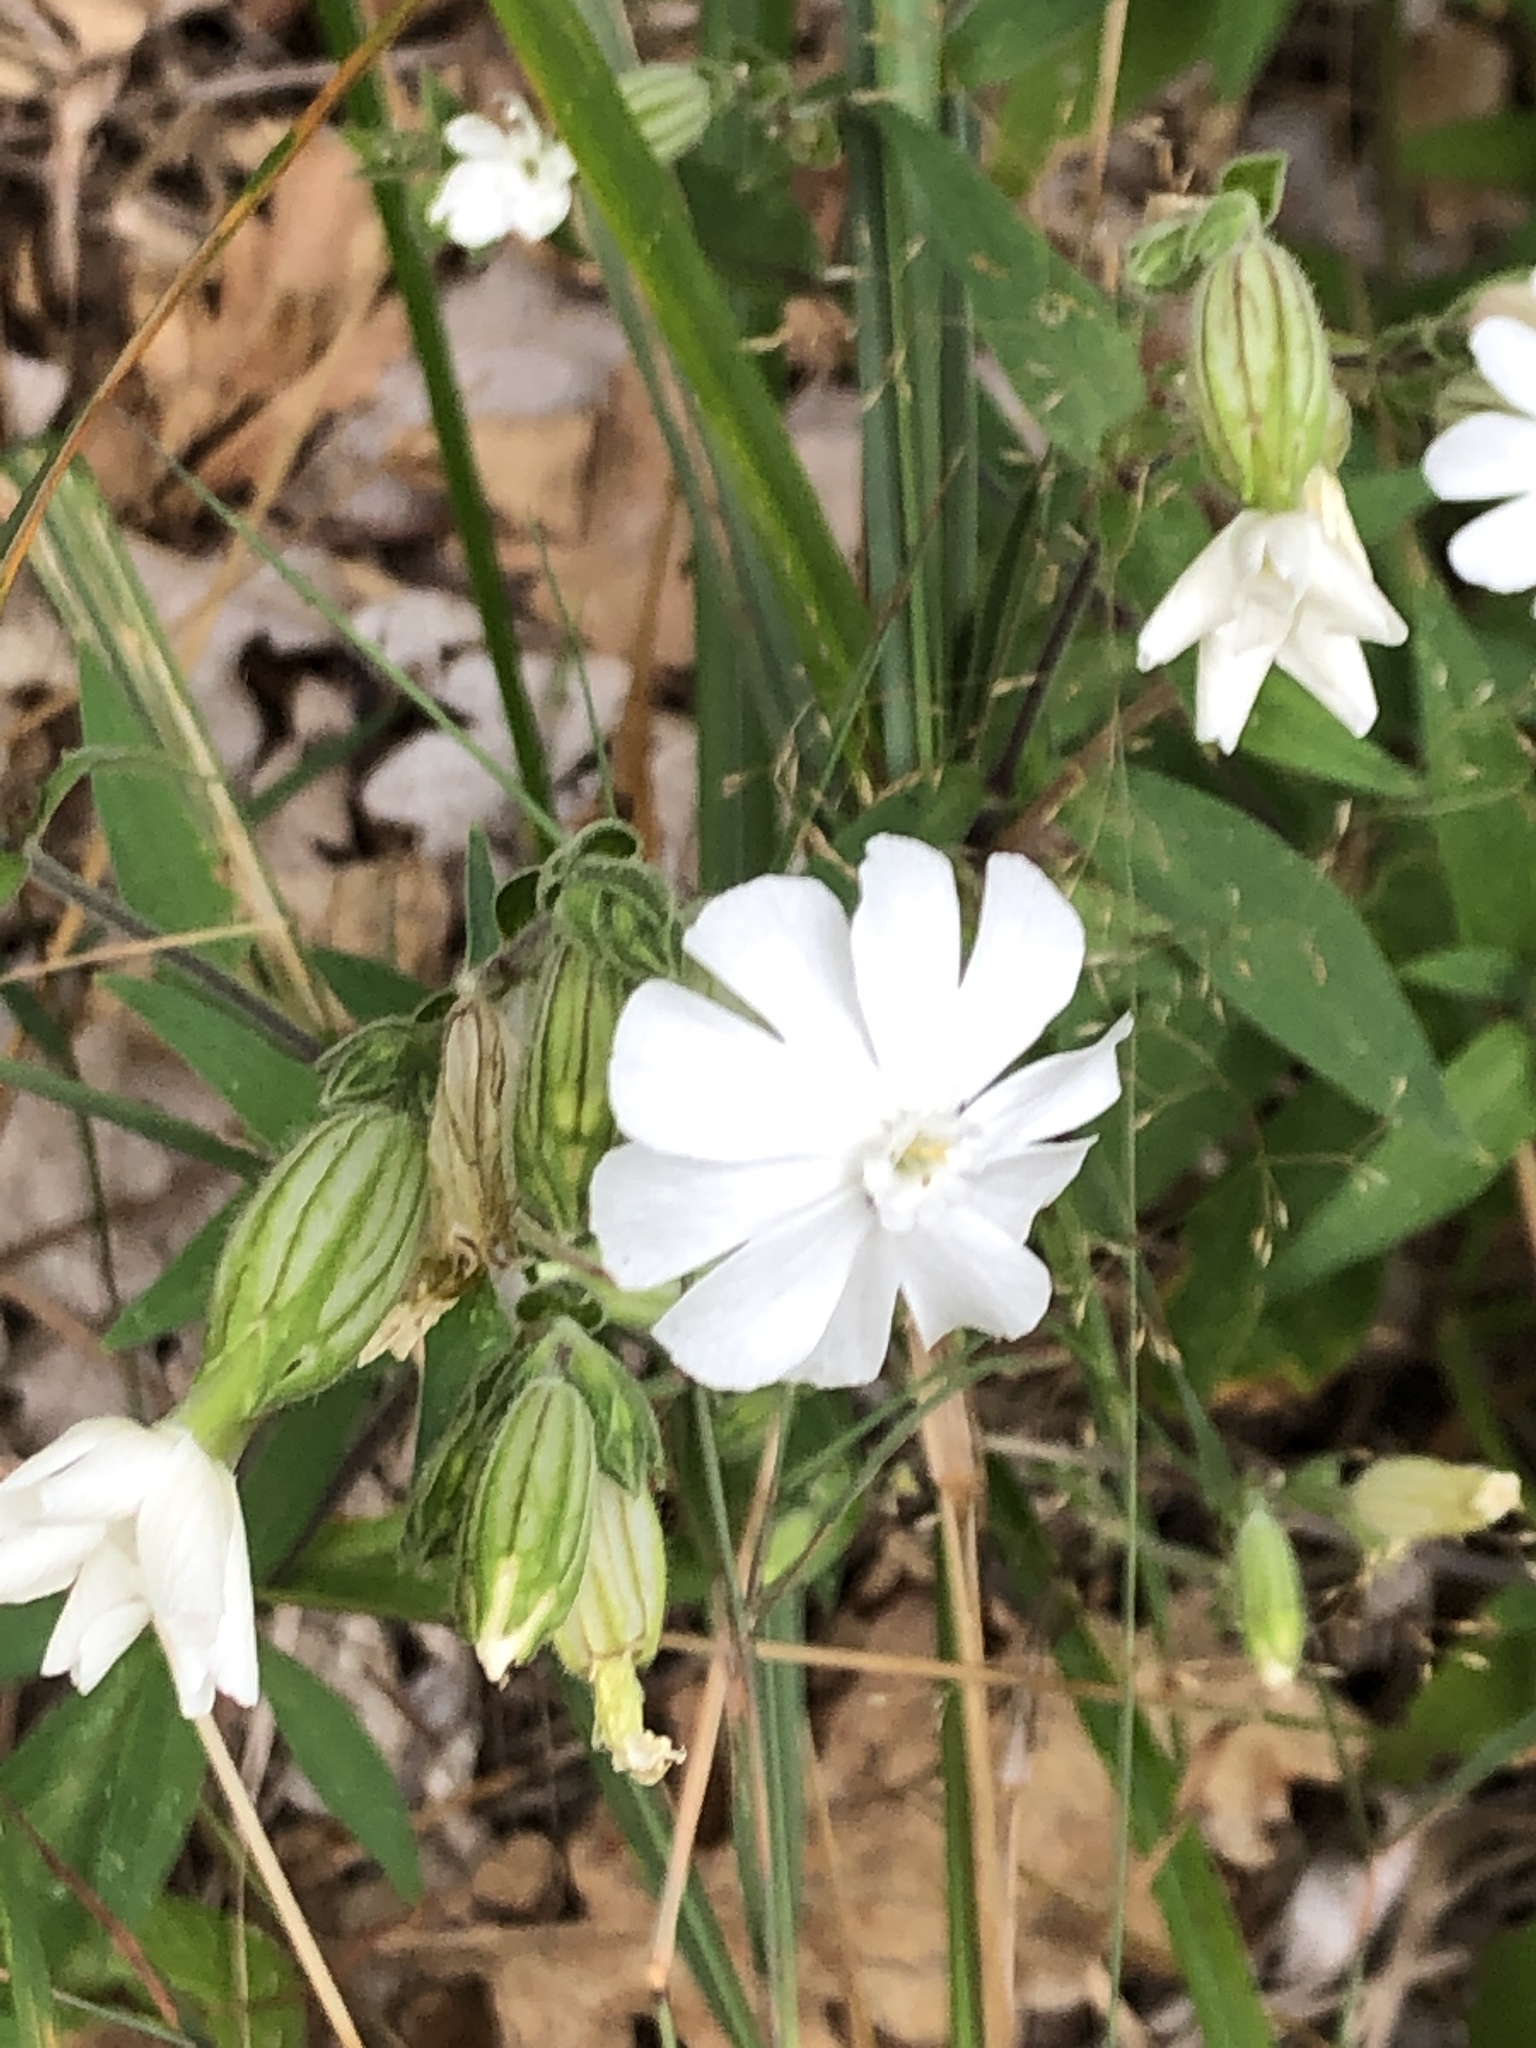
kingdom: Plantae
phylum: Tracheophyta
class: Magnoliopsida
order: Caryophyllales
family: Caryophyllaceae
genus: Silene
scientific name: Silene latifolia
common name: White campion
